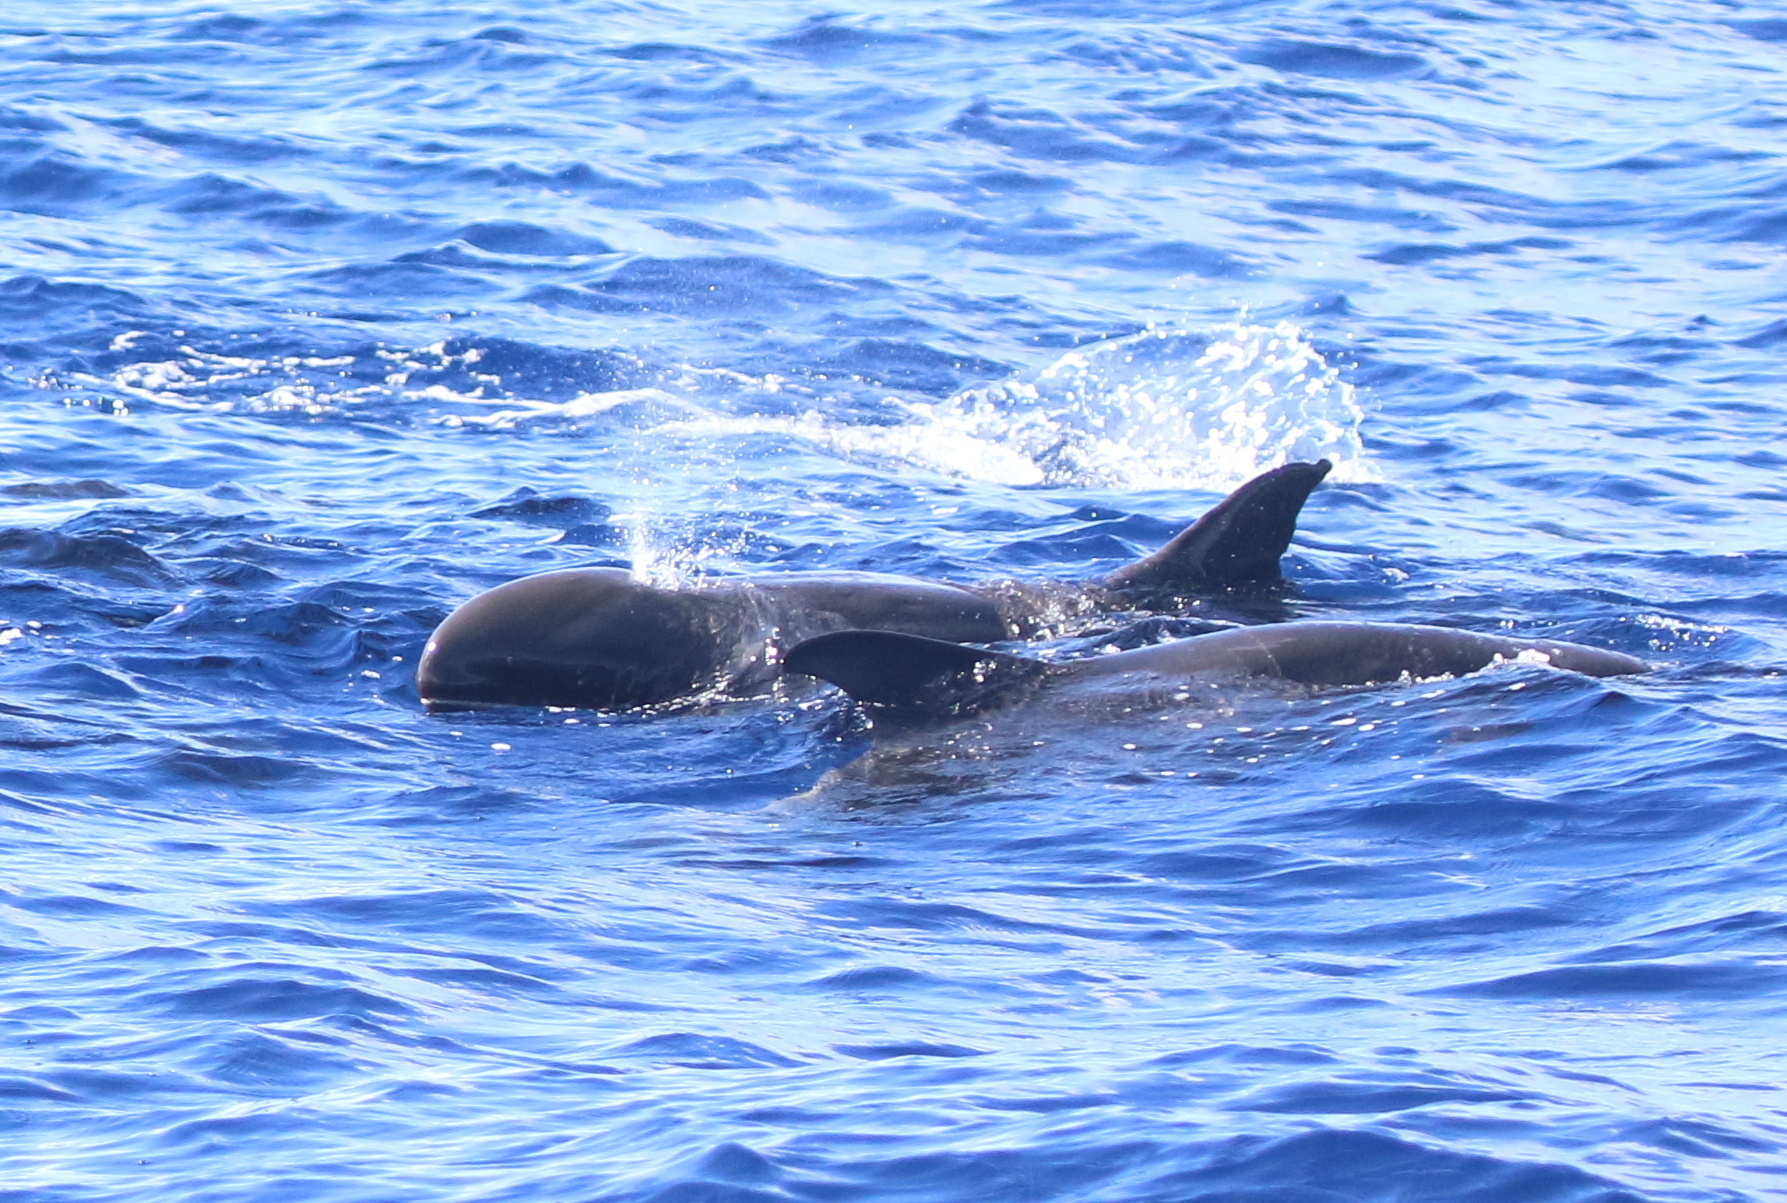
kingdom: Animalia
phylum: Chordata
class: Mammalia
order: Cetacea
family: Delphinidae
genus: Peponocephala
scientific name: Peponocephala electra
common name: Melon-headed whale
